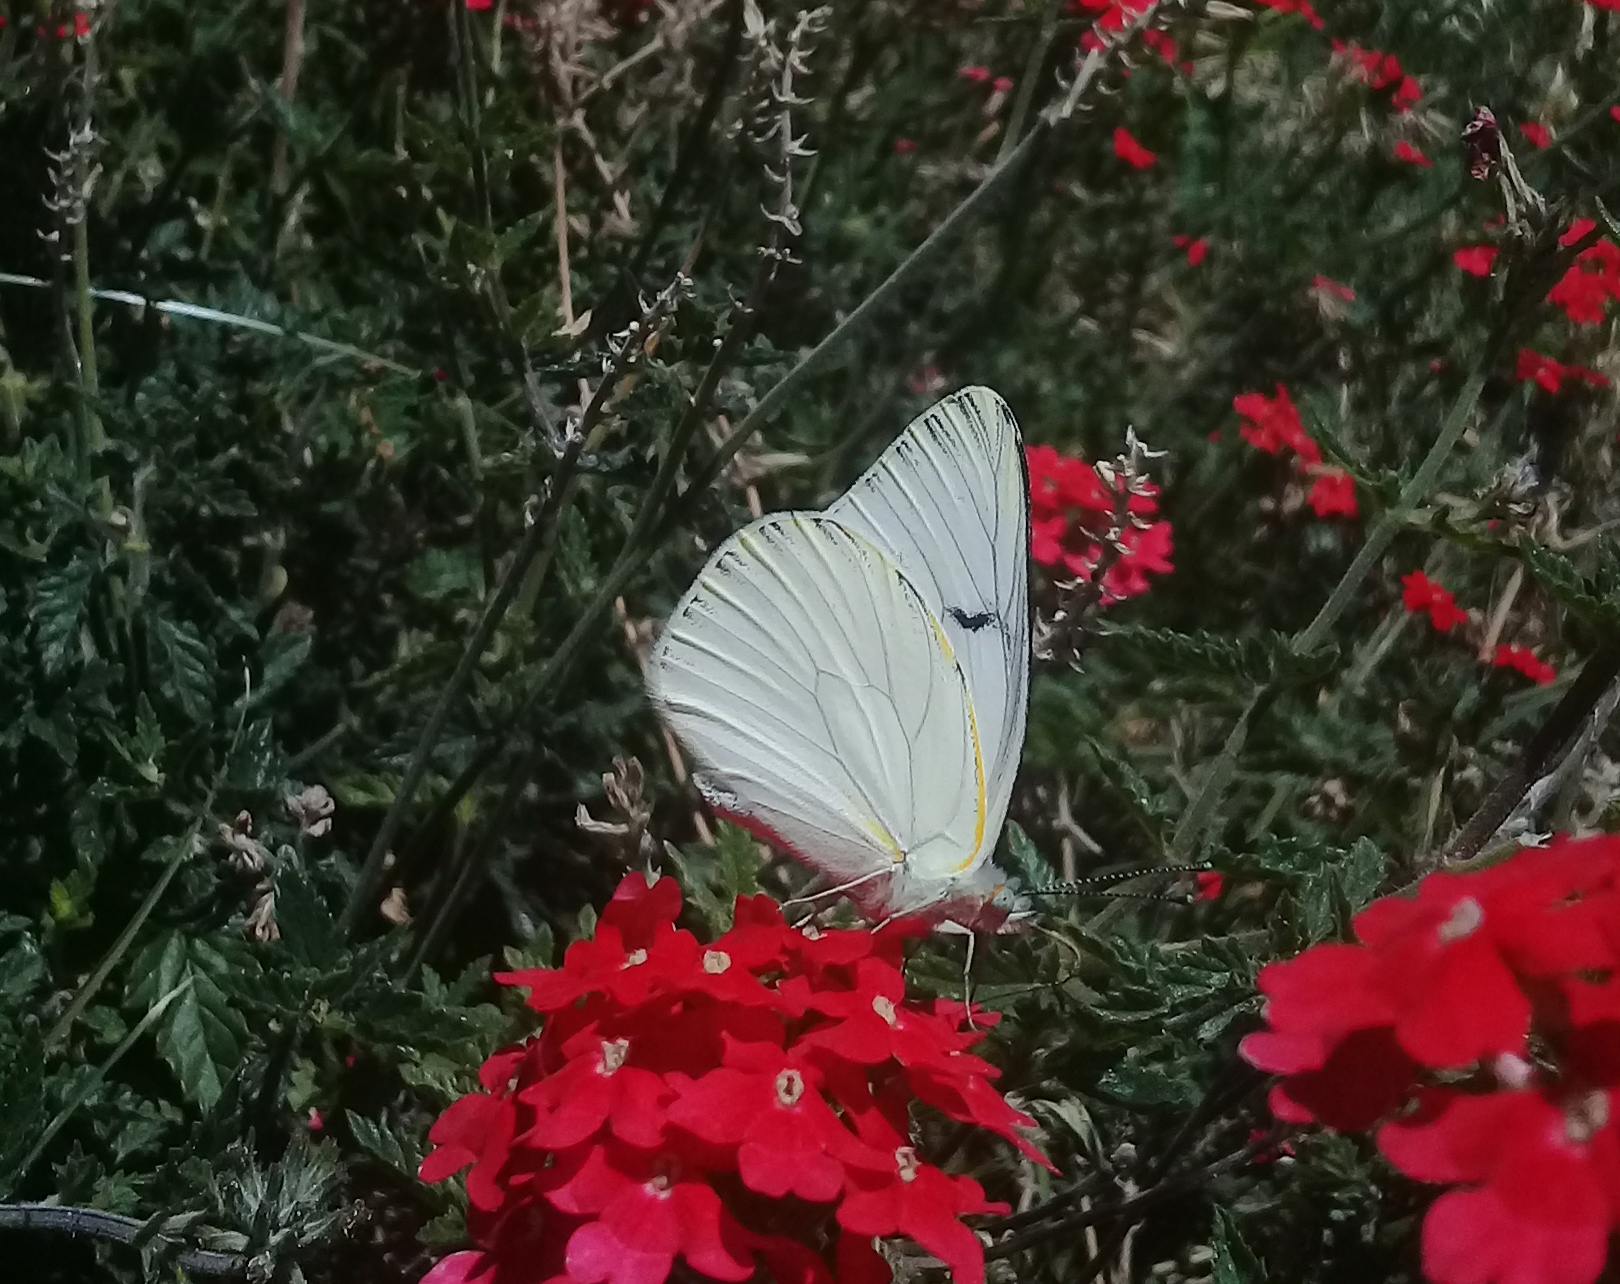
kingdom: Animalia
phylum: Arthropoda
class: Insecta
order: Lepidoptera
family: Pieridae
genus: Tatochila
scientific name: Tatochila mercedis
